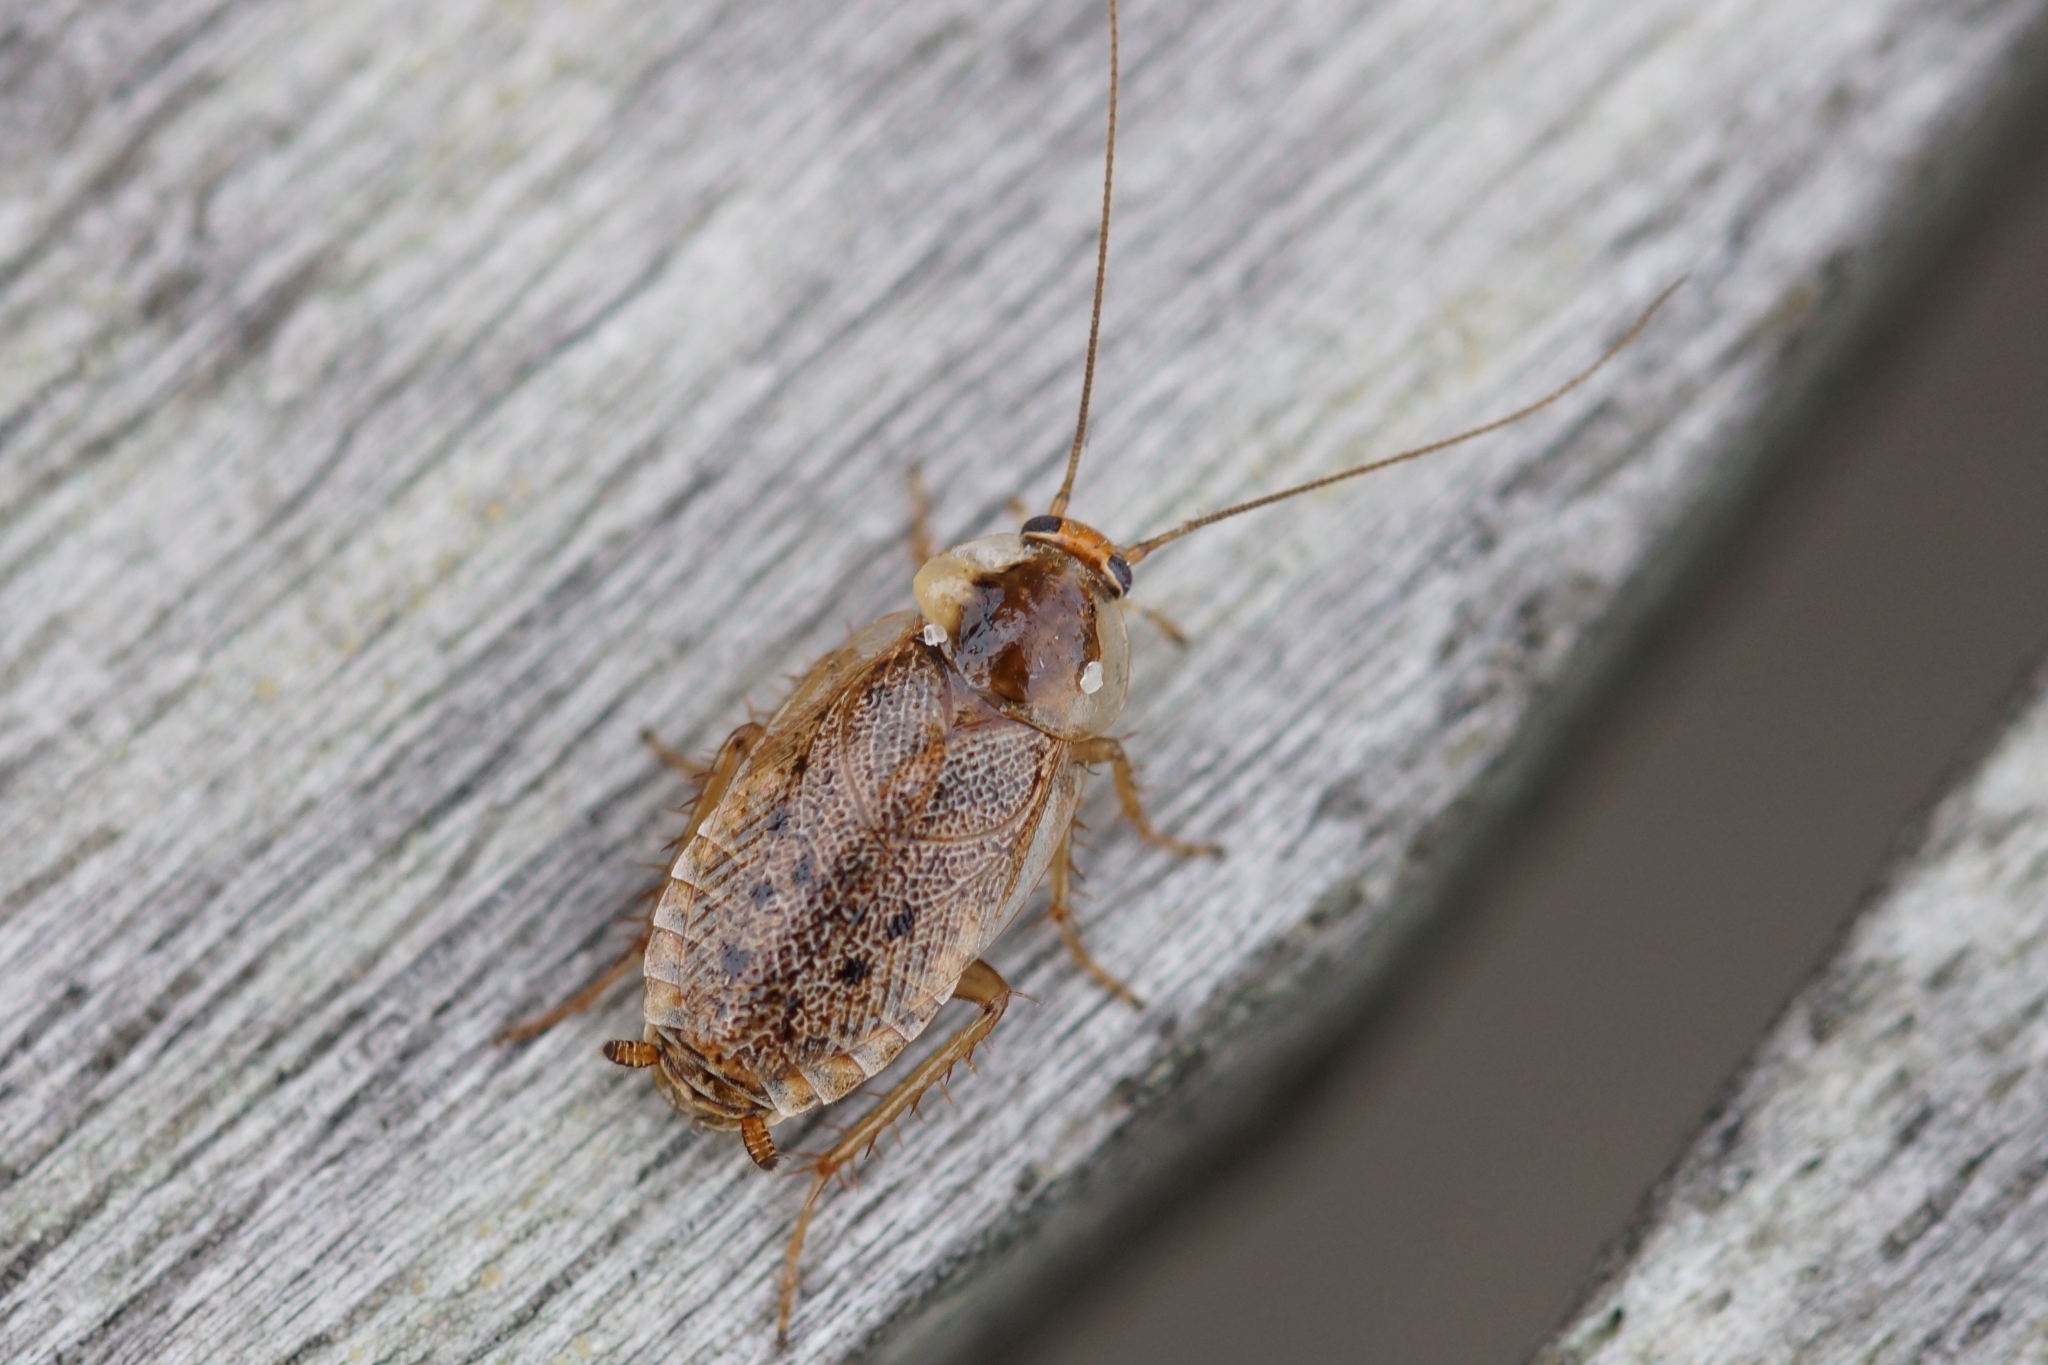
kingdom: Animalia
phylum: Arthropoda
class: Insecta
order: Blattodea
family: Ectobiidae
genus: Ectobius
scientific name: Ectobius lapponicus
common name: Dusky cockroach
